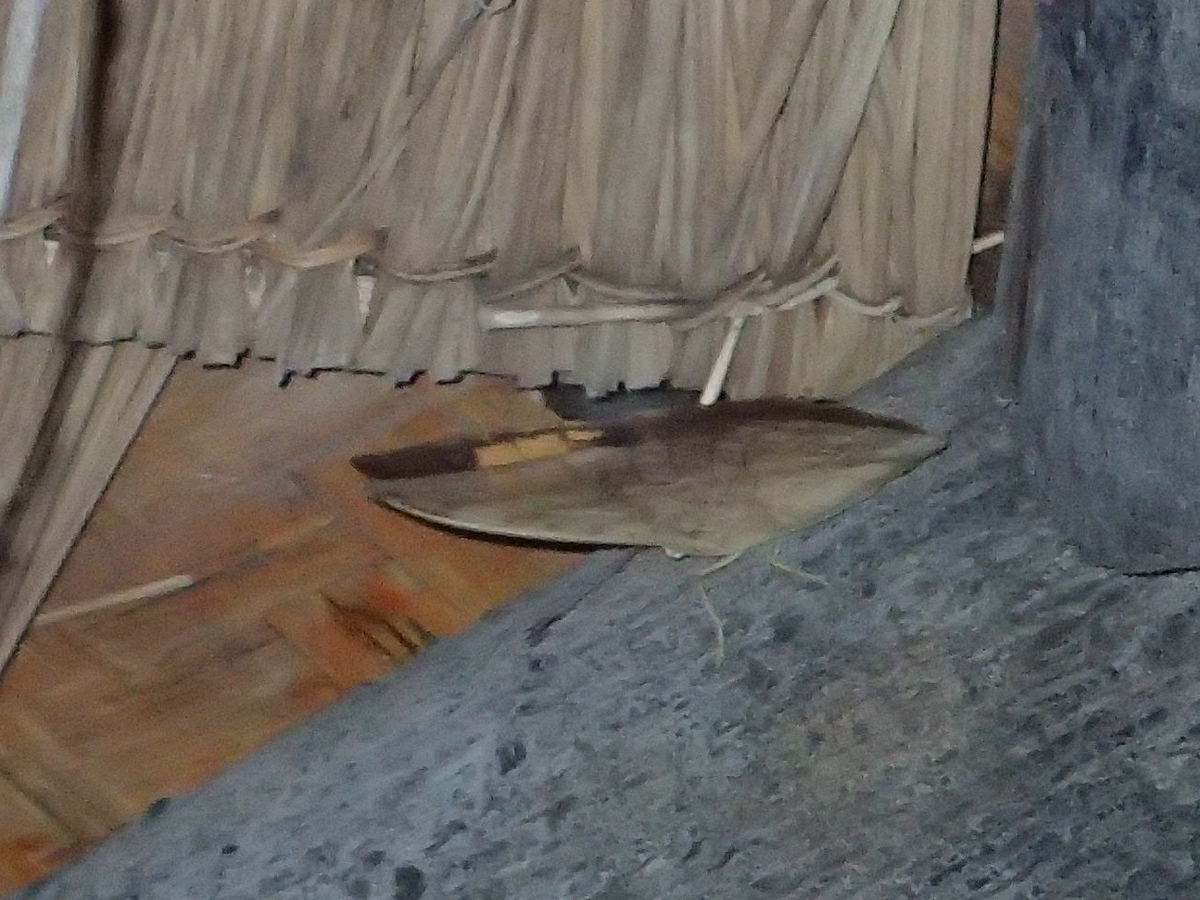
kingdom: Animalia
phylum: Arthropoda
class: Insecta
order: Lepidoptera
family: Nymphalidae
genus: Discophora
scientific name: Discophora timora
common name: Great duffer
